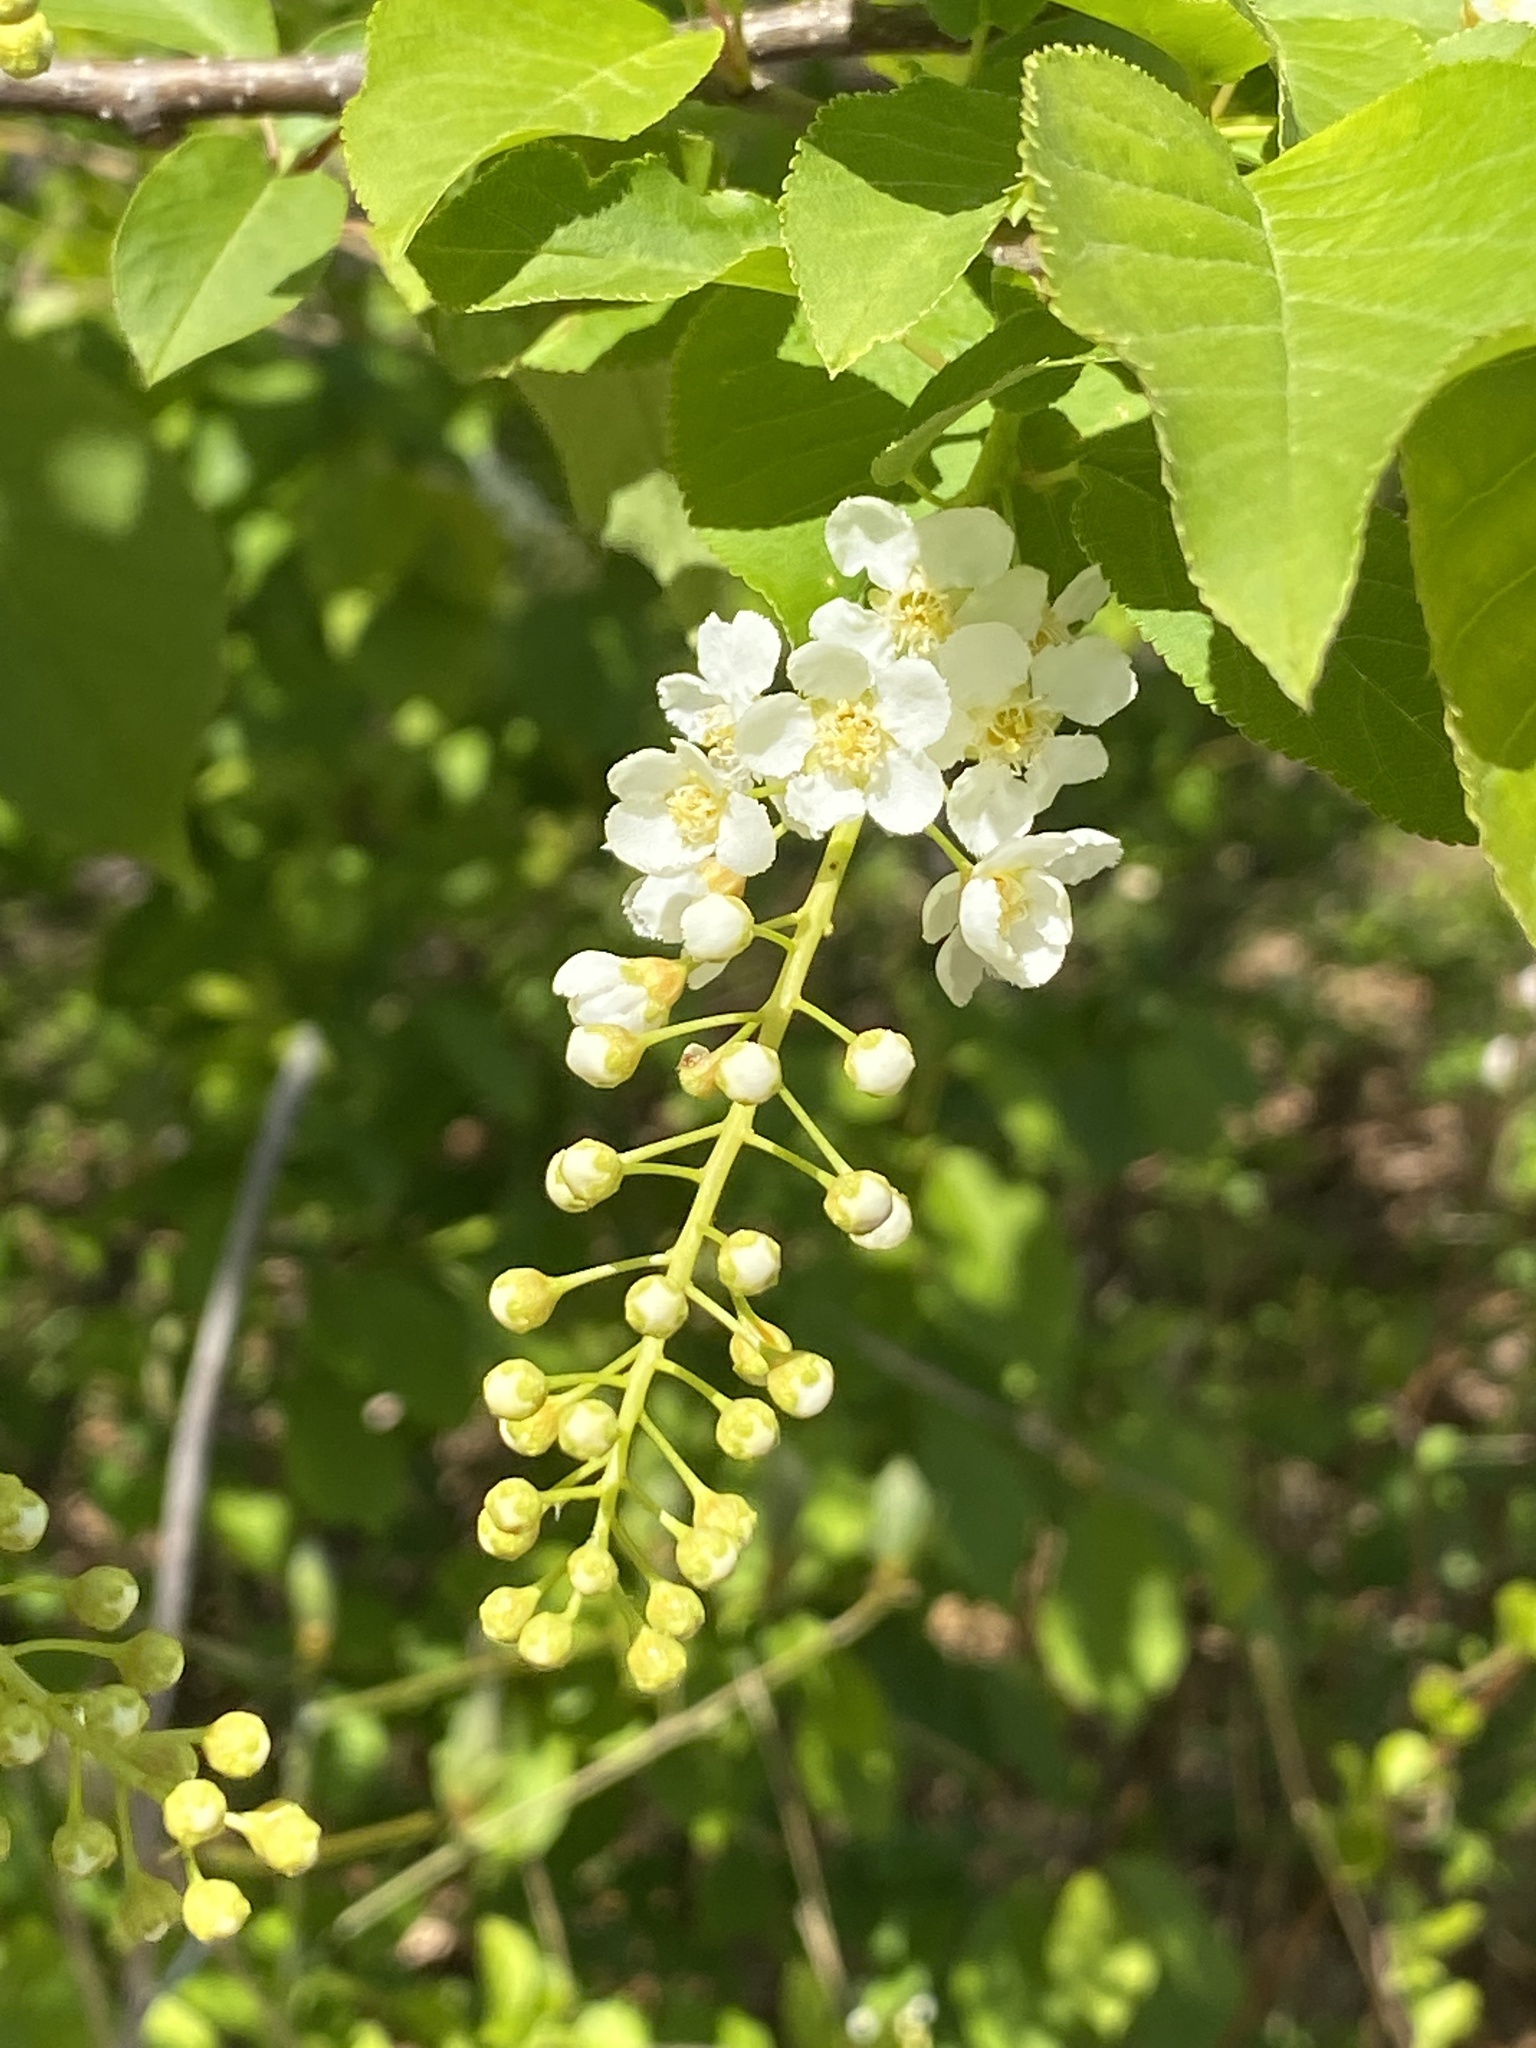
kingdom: Plantae
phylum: Tracheophyta
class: Magnoliopsida
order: Rosales
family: Rosaceae
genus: Prunus
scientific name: Prunus virginiana
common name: Chokecherry
